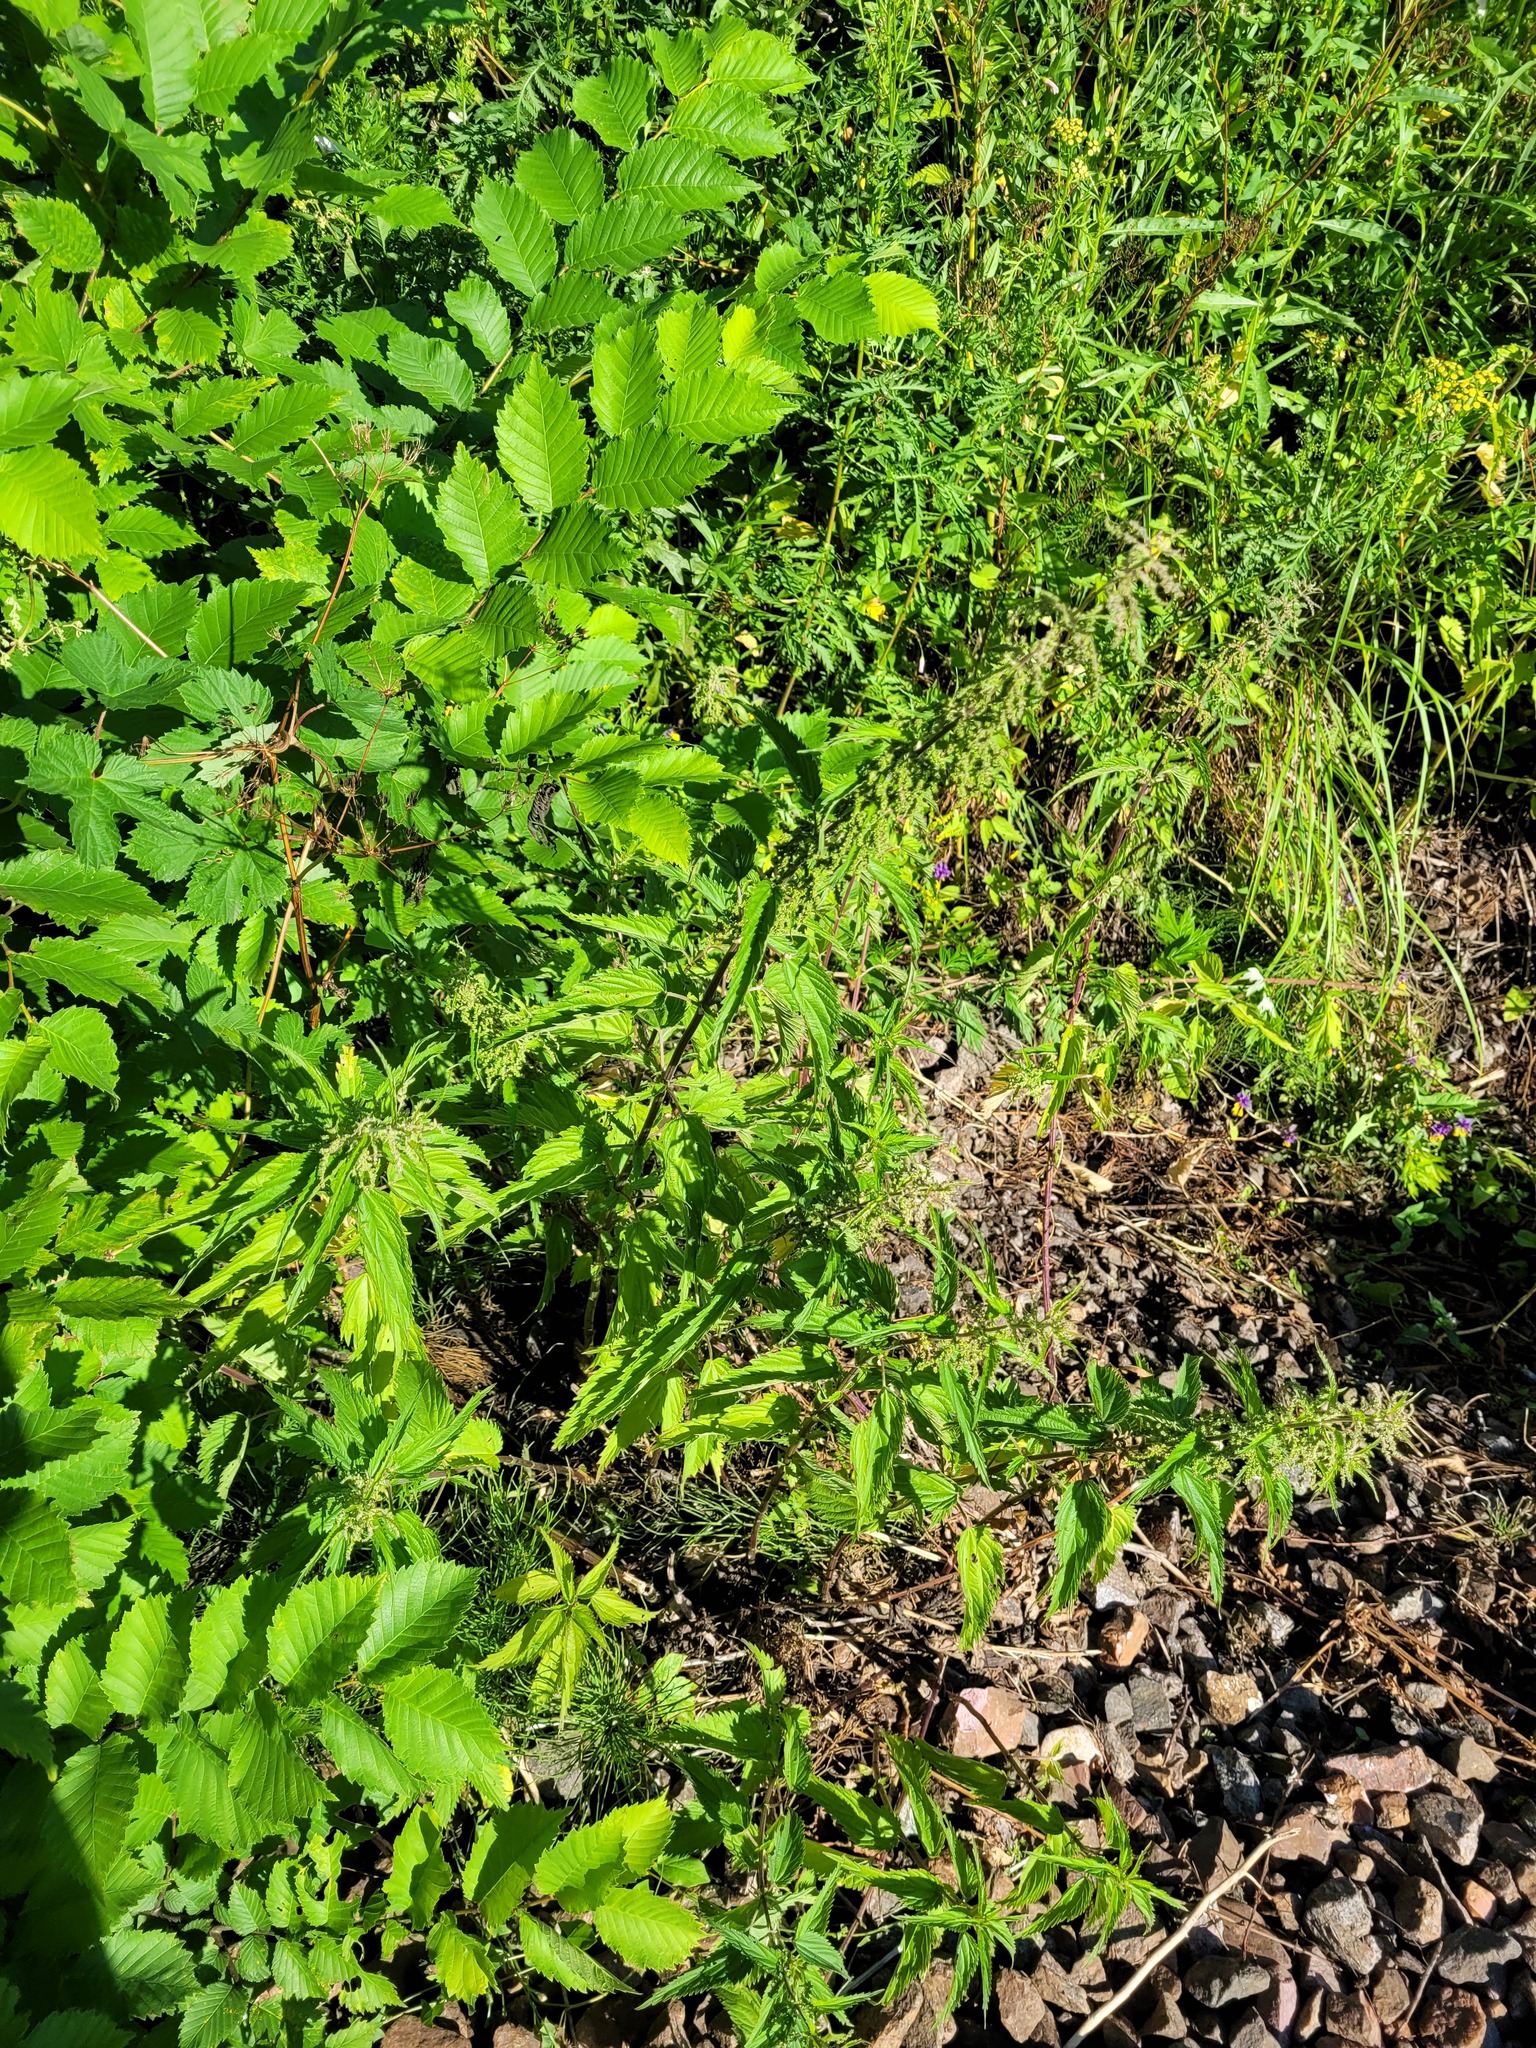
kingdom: Plantae
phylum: Tracheophyta
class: Magnoliopsida
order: Rosales
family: Urticaceae
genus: Urtica
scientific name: Urtica dioica
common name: Common nettle
